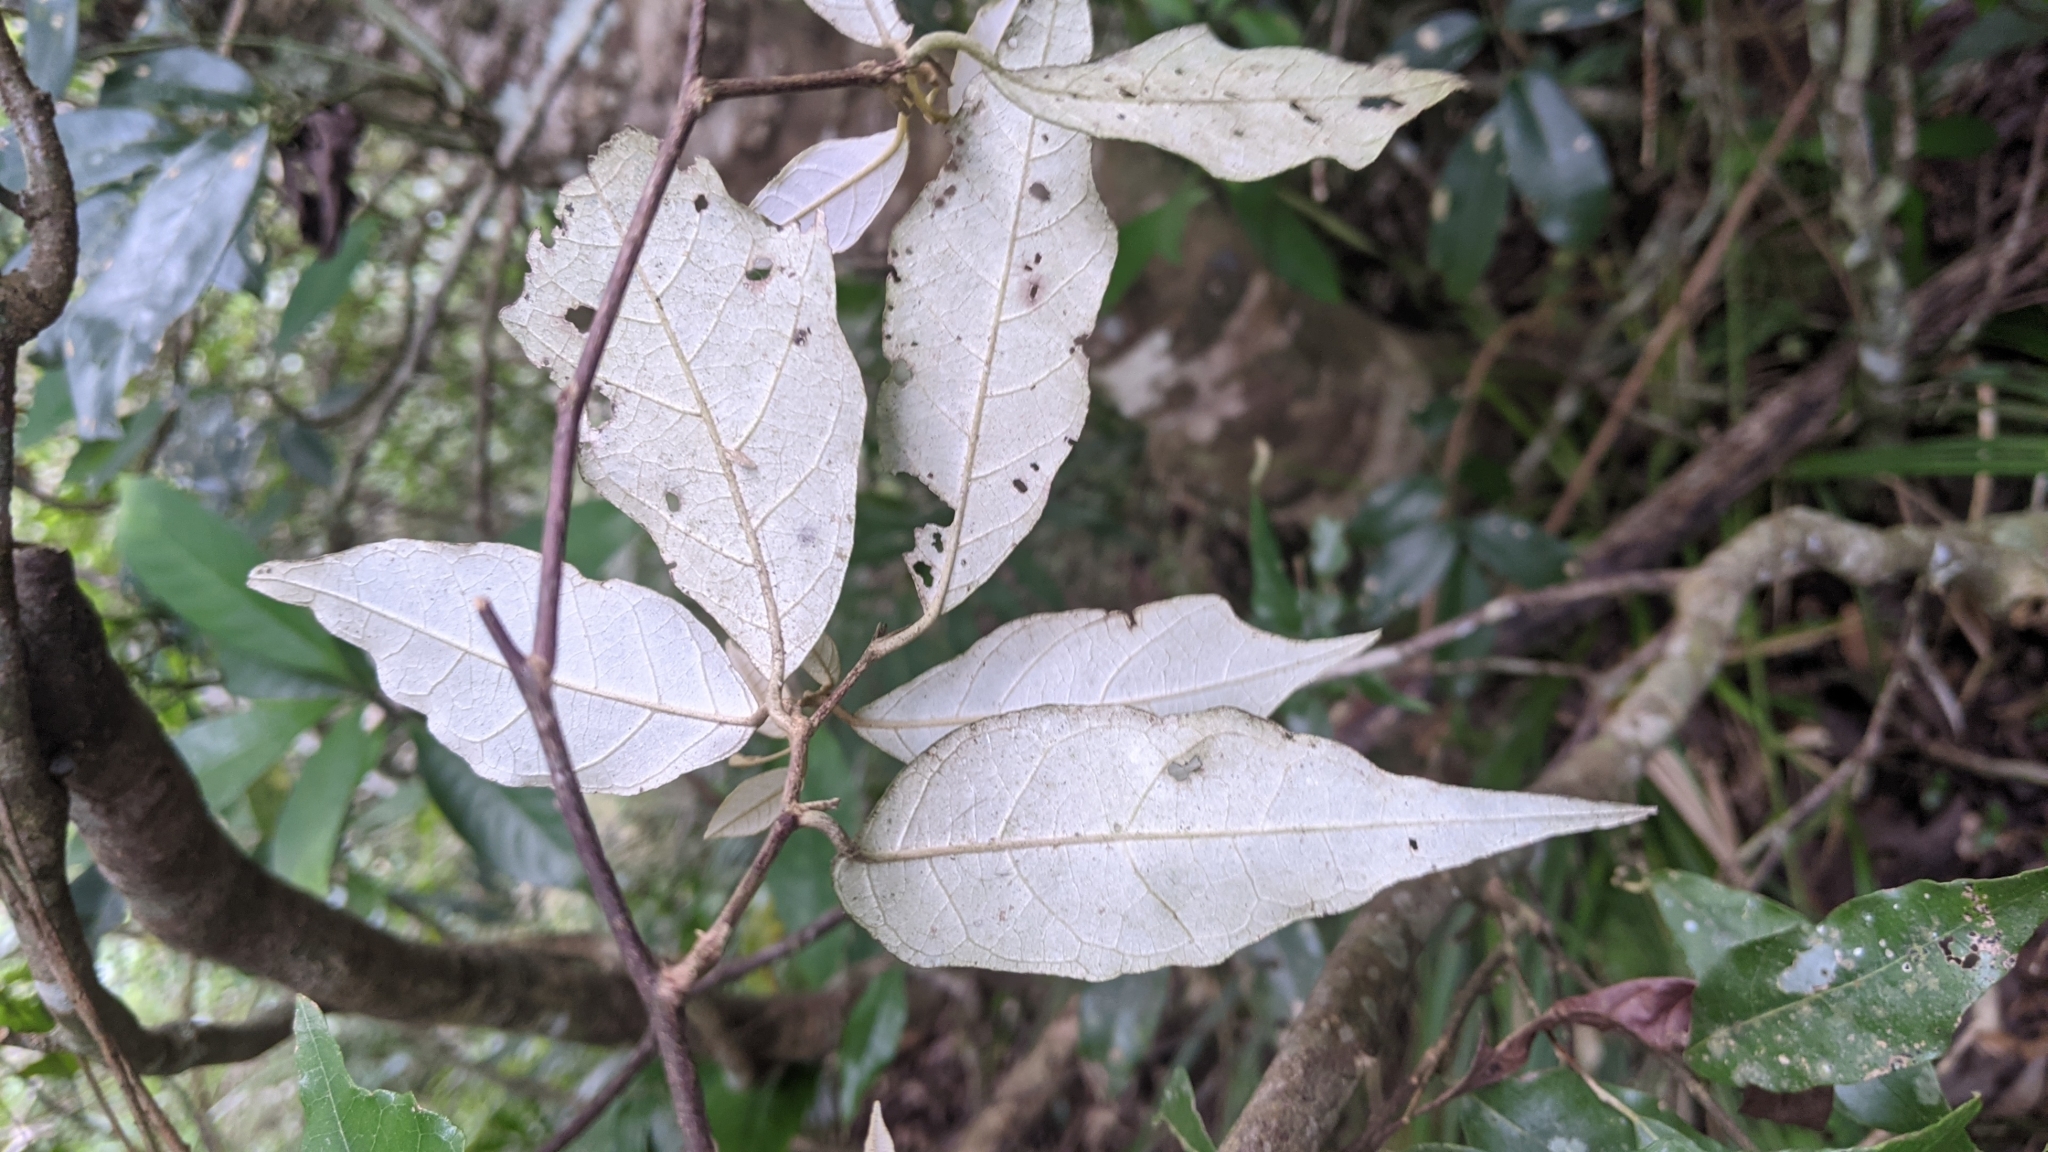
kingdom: Plantae
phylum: Tracheophyta
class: Magnoliopsida
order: Ericales
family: Styracaceae
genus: Styrax
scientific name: Styrax suberifolius
